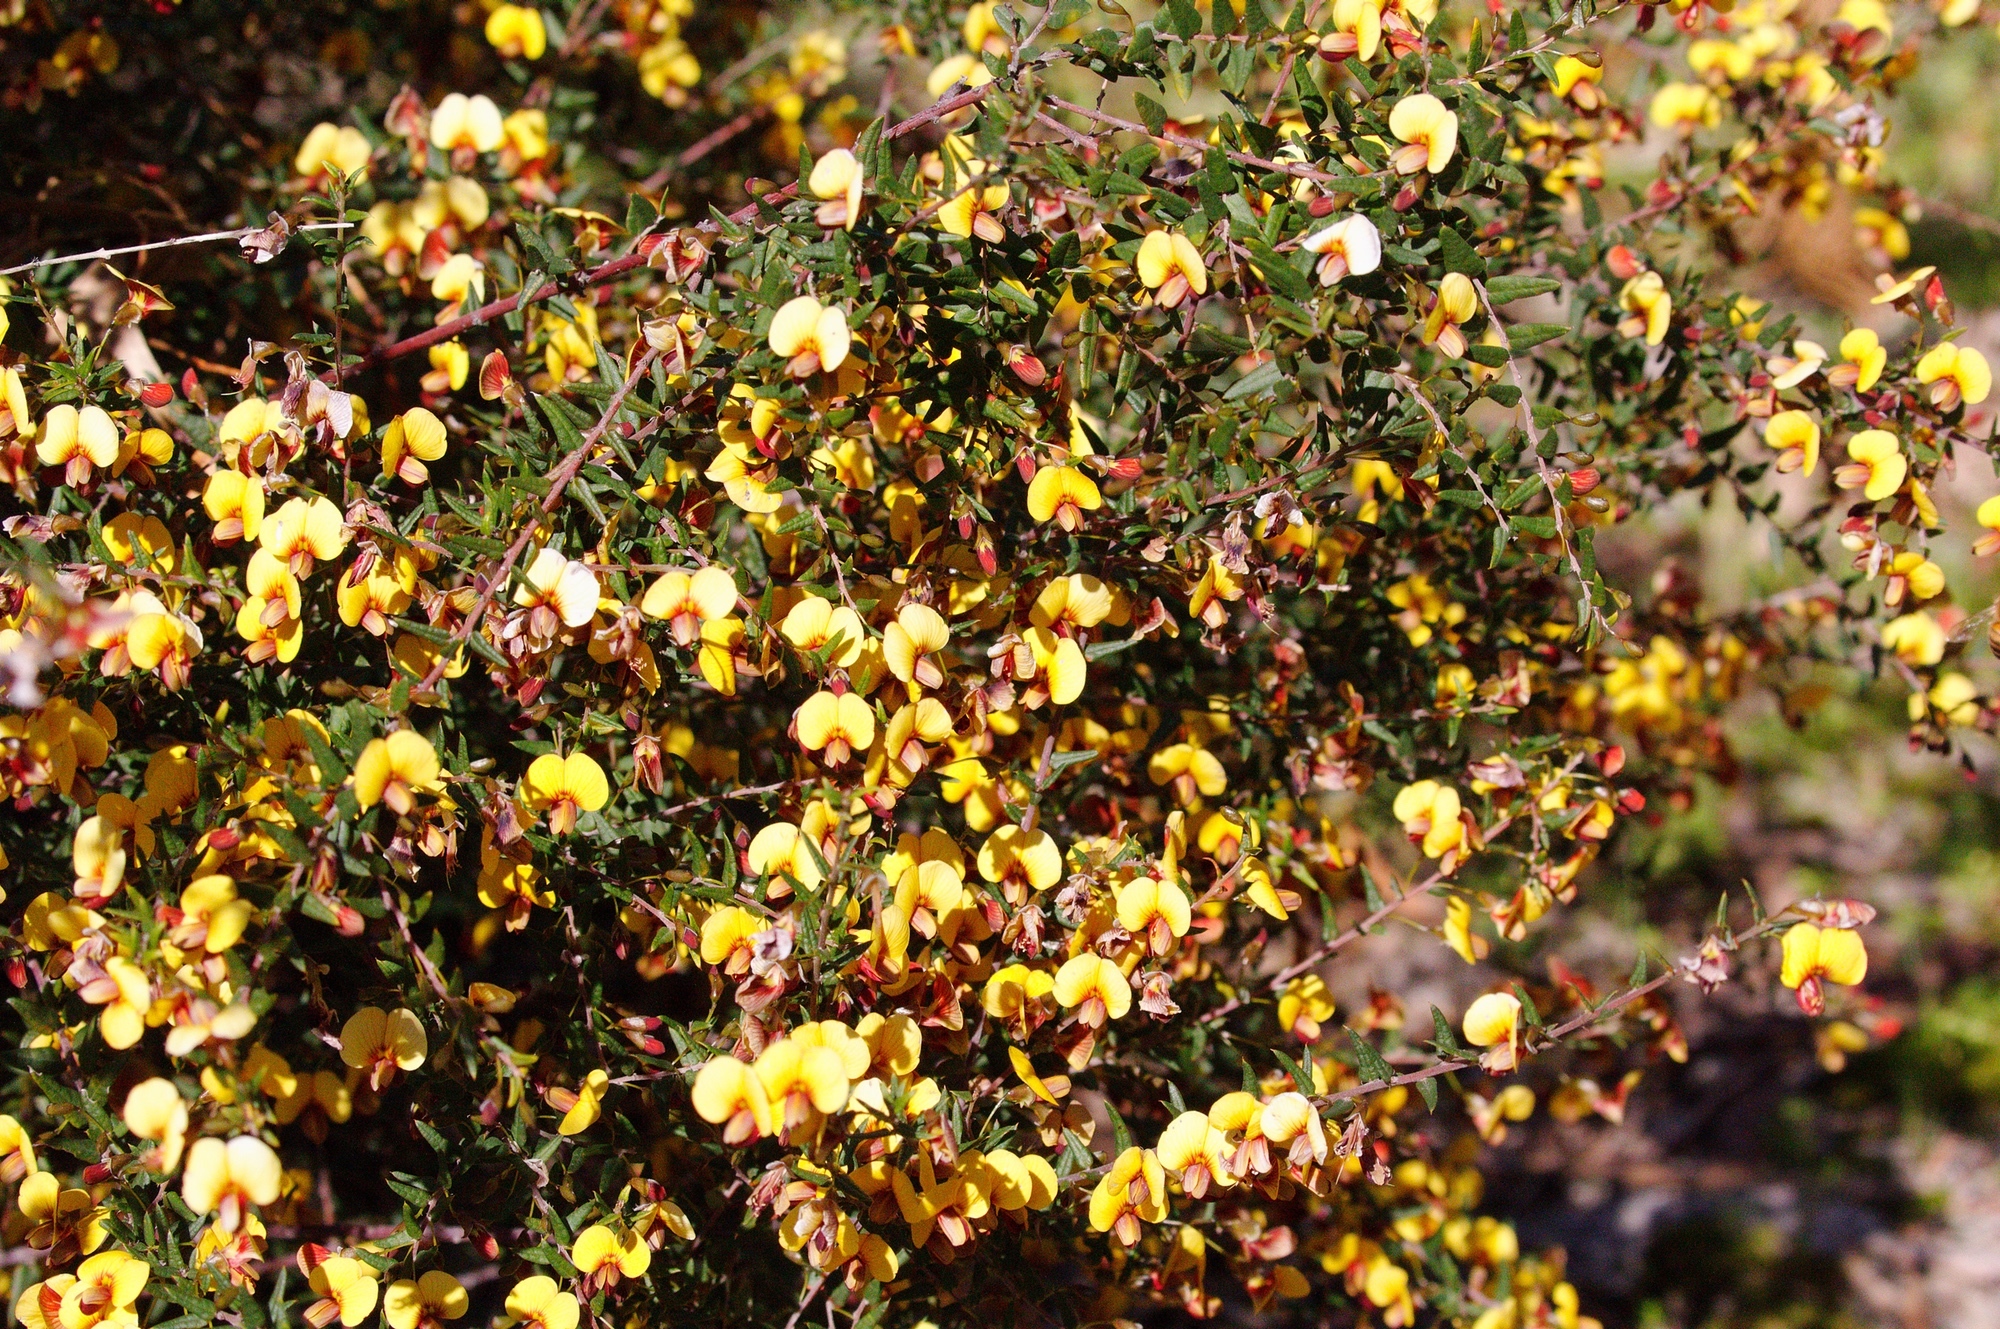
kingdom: Plantae
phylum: Tracheophyta
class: Magnoliopsida
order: Fabales
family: Fabaceae
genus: Bossiaea
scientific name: Bossiaea cinerea
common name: Showy bossiaea
